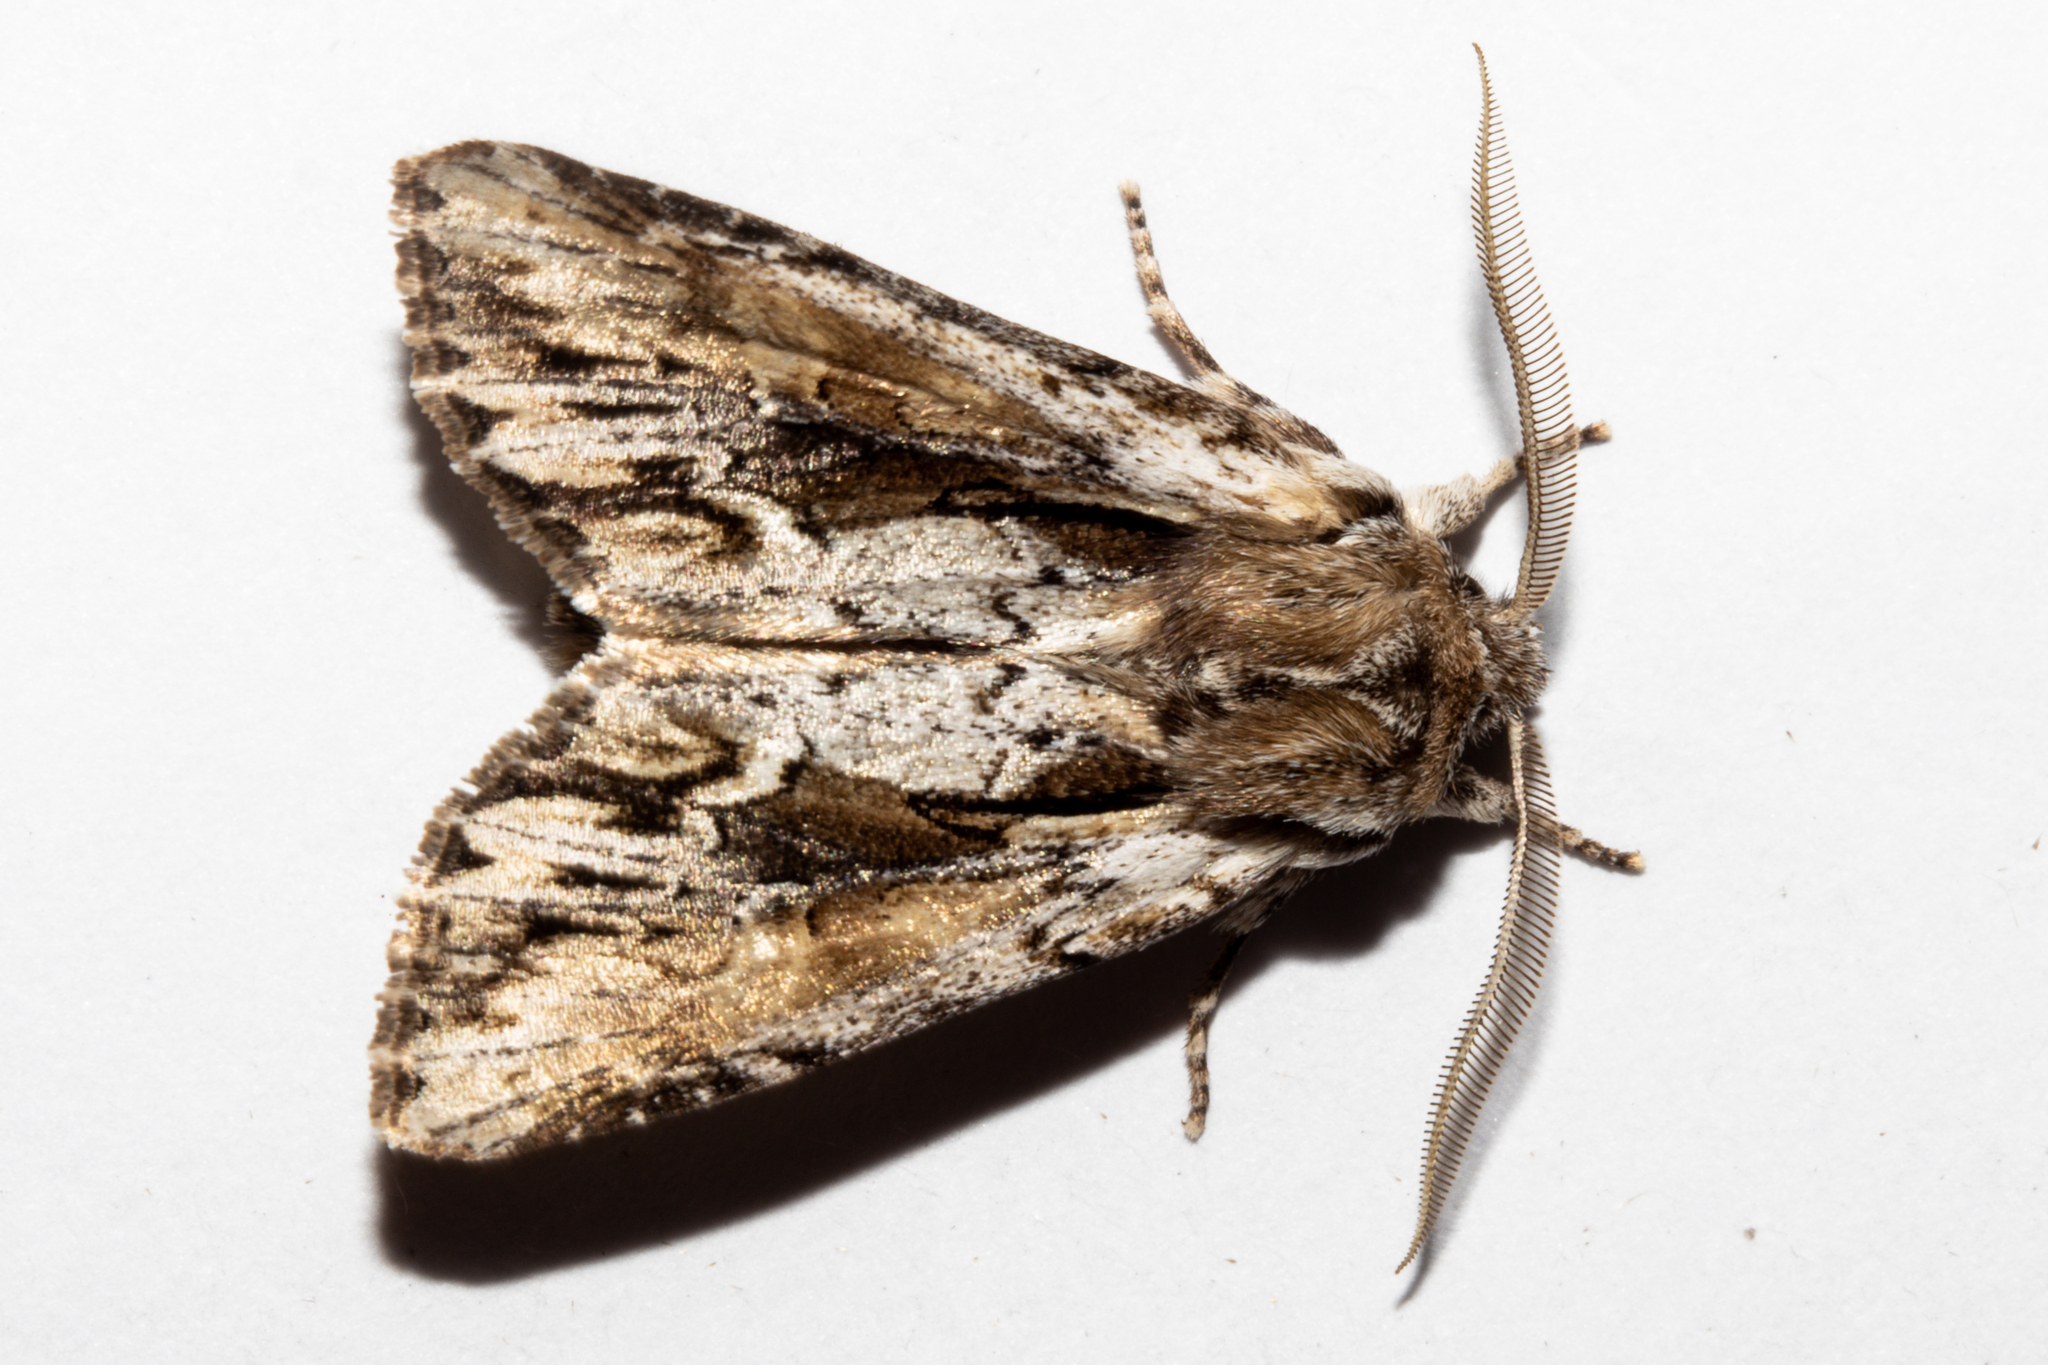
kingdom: Animalia
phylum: Arthropoda
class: Insecta
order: Lepidoptera
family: Noctuidae
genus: Ichneutica
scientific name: Ichneutica
